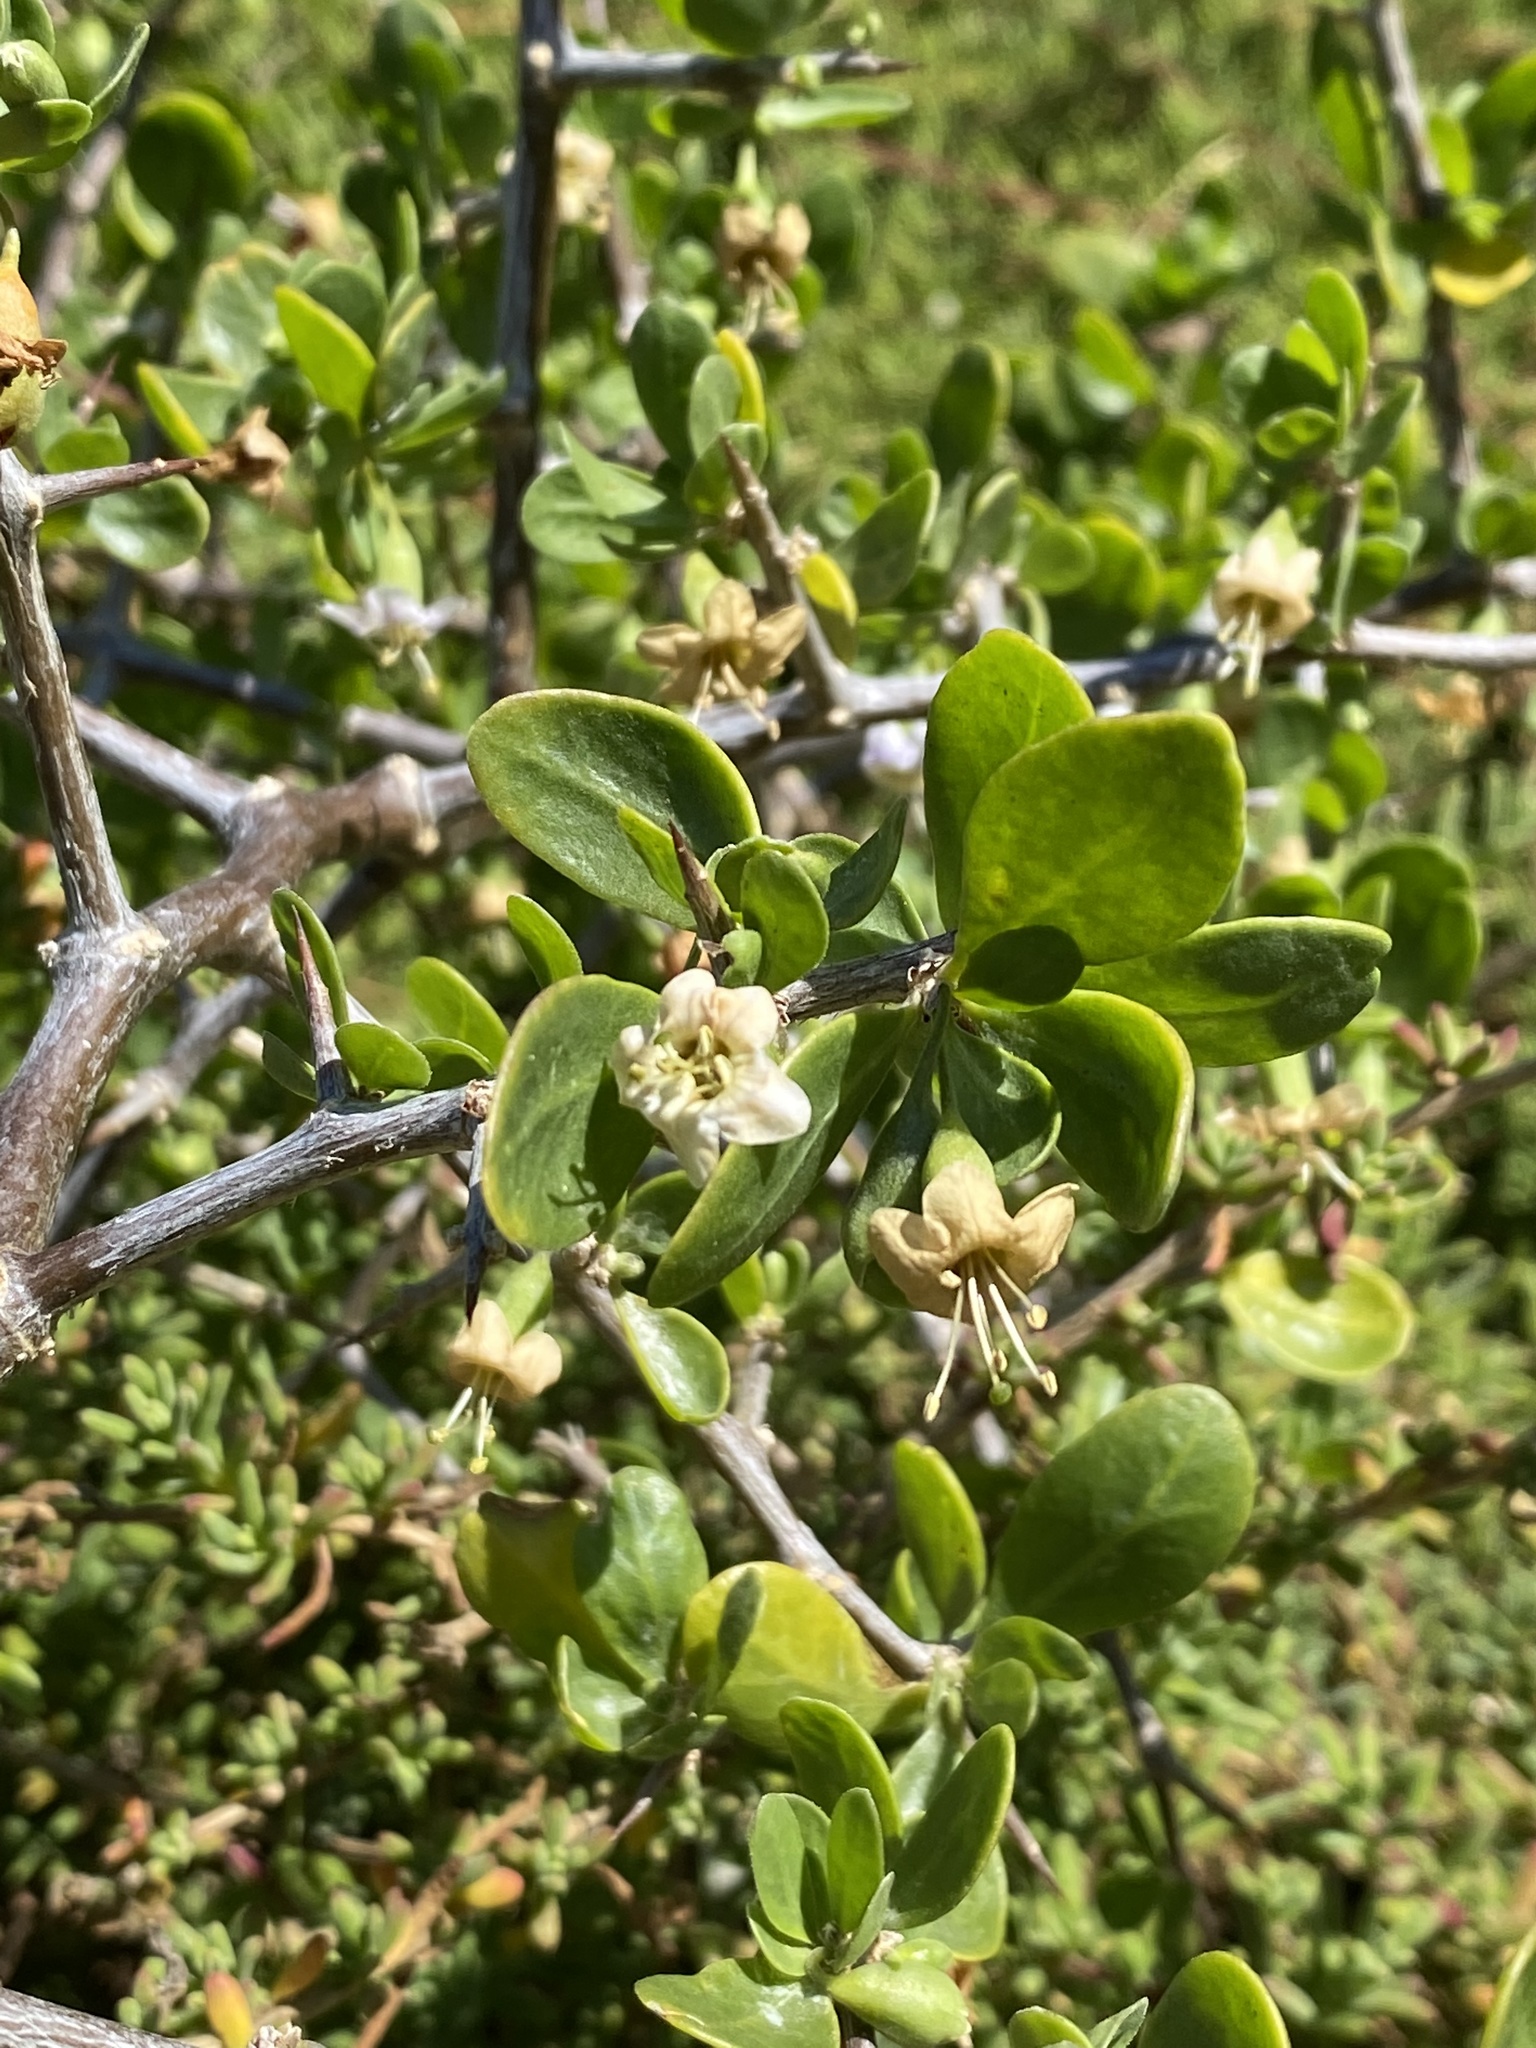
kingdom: Plantae
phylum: Tracheophyta
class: Magnoliopsida
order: Solanales
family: Solanaceae
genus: Lycium
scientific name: Lycium ferocissimum
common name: African boxthorn
